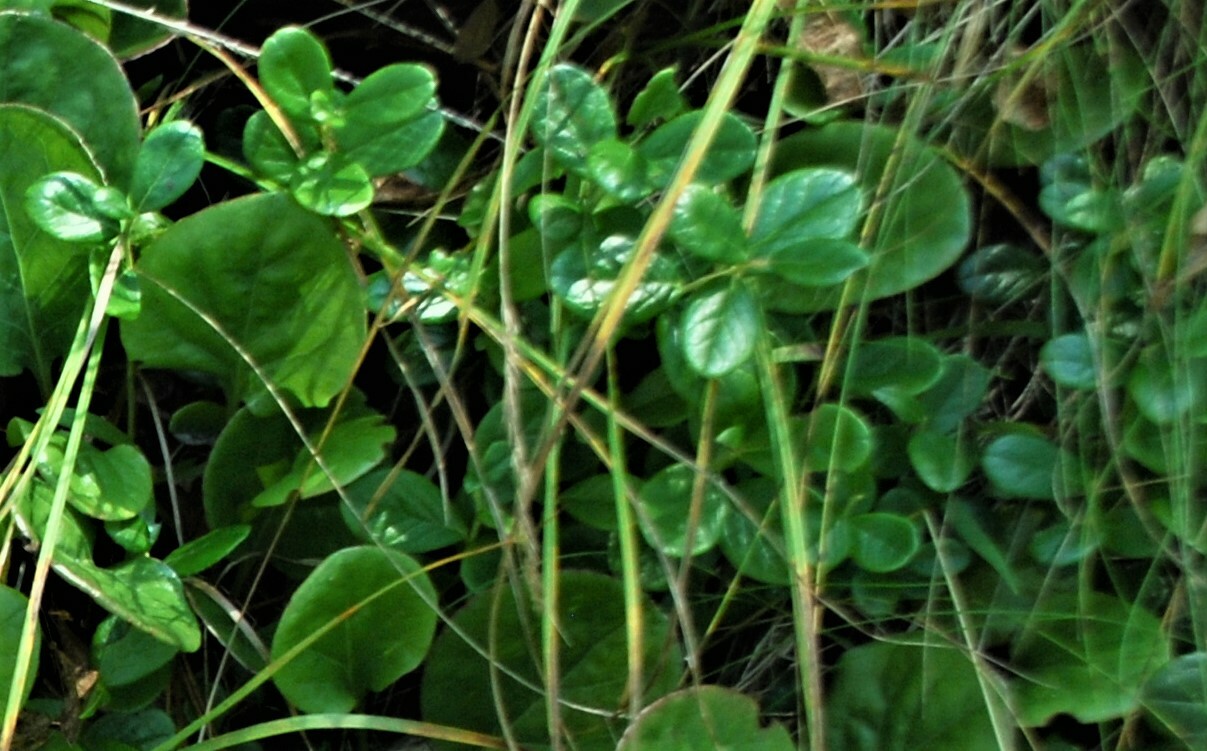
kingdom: Plantae
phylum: Tracheophyta
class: Magnoliopsida
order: Ericales
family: Ericaceae
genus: Vaccinium
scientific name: Vaccinium vitis-idaea
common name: Cowberry
